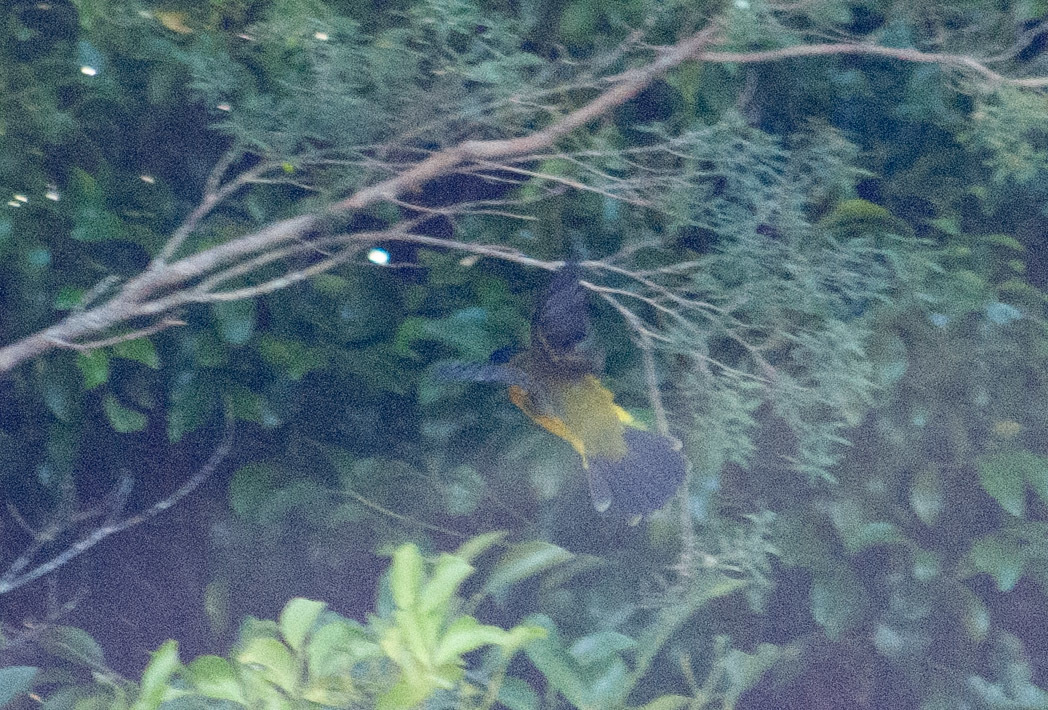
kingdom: Animalia
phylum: Chordata
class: Aves
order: Passeriformes
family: Pachycephalidae
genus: Pachycephala
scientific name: Pachycephala pectoralis
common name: Australian golden whistler
